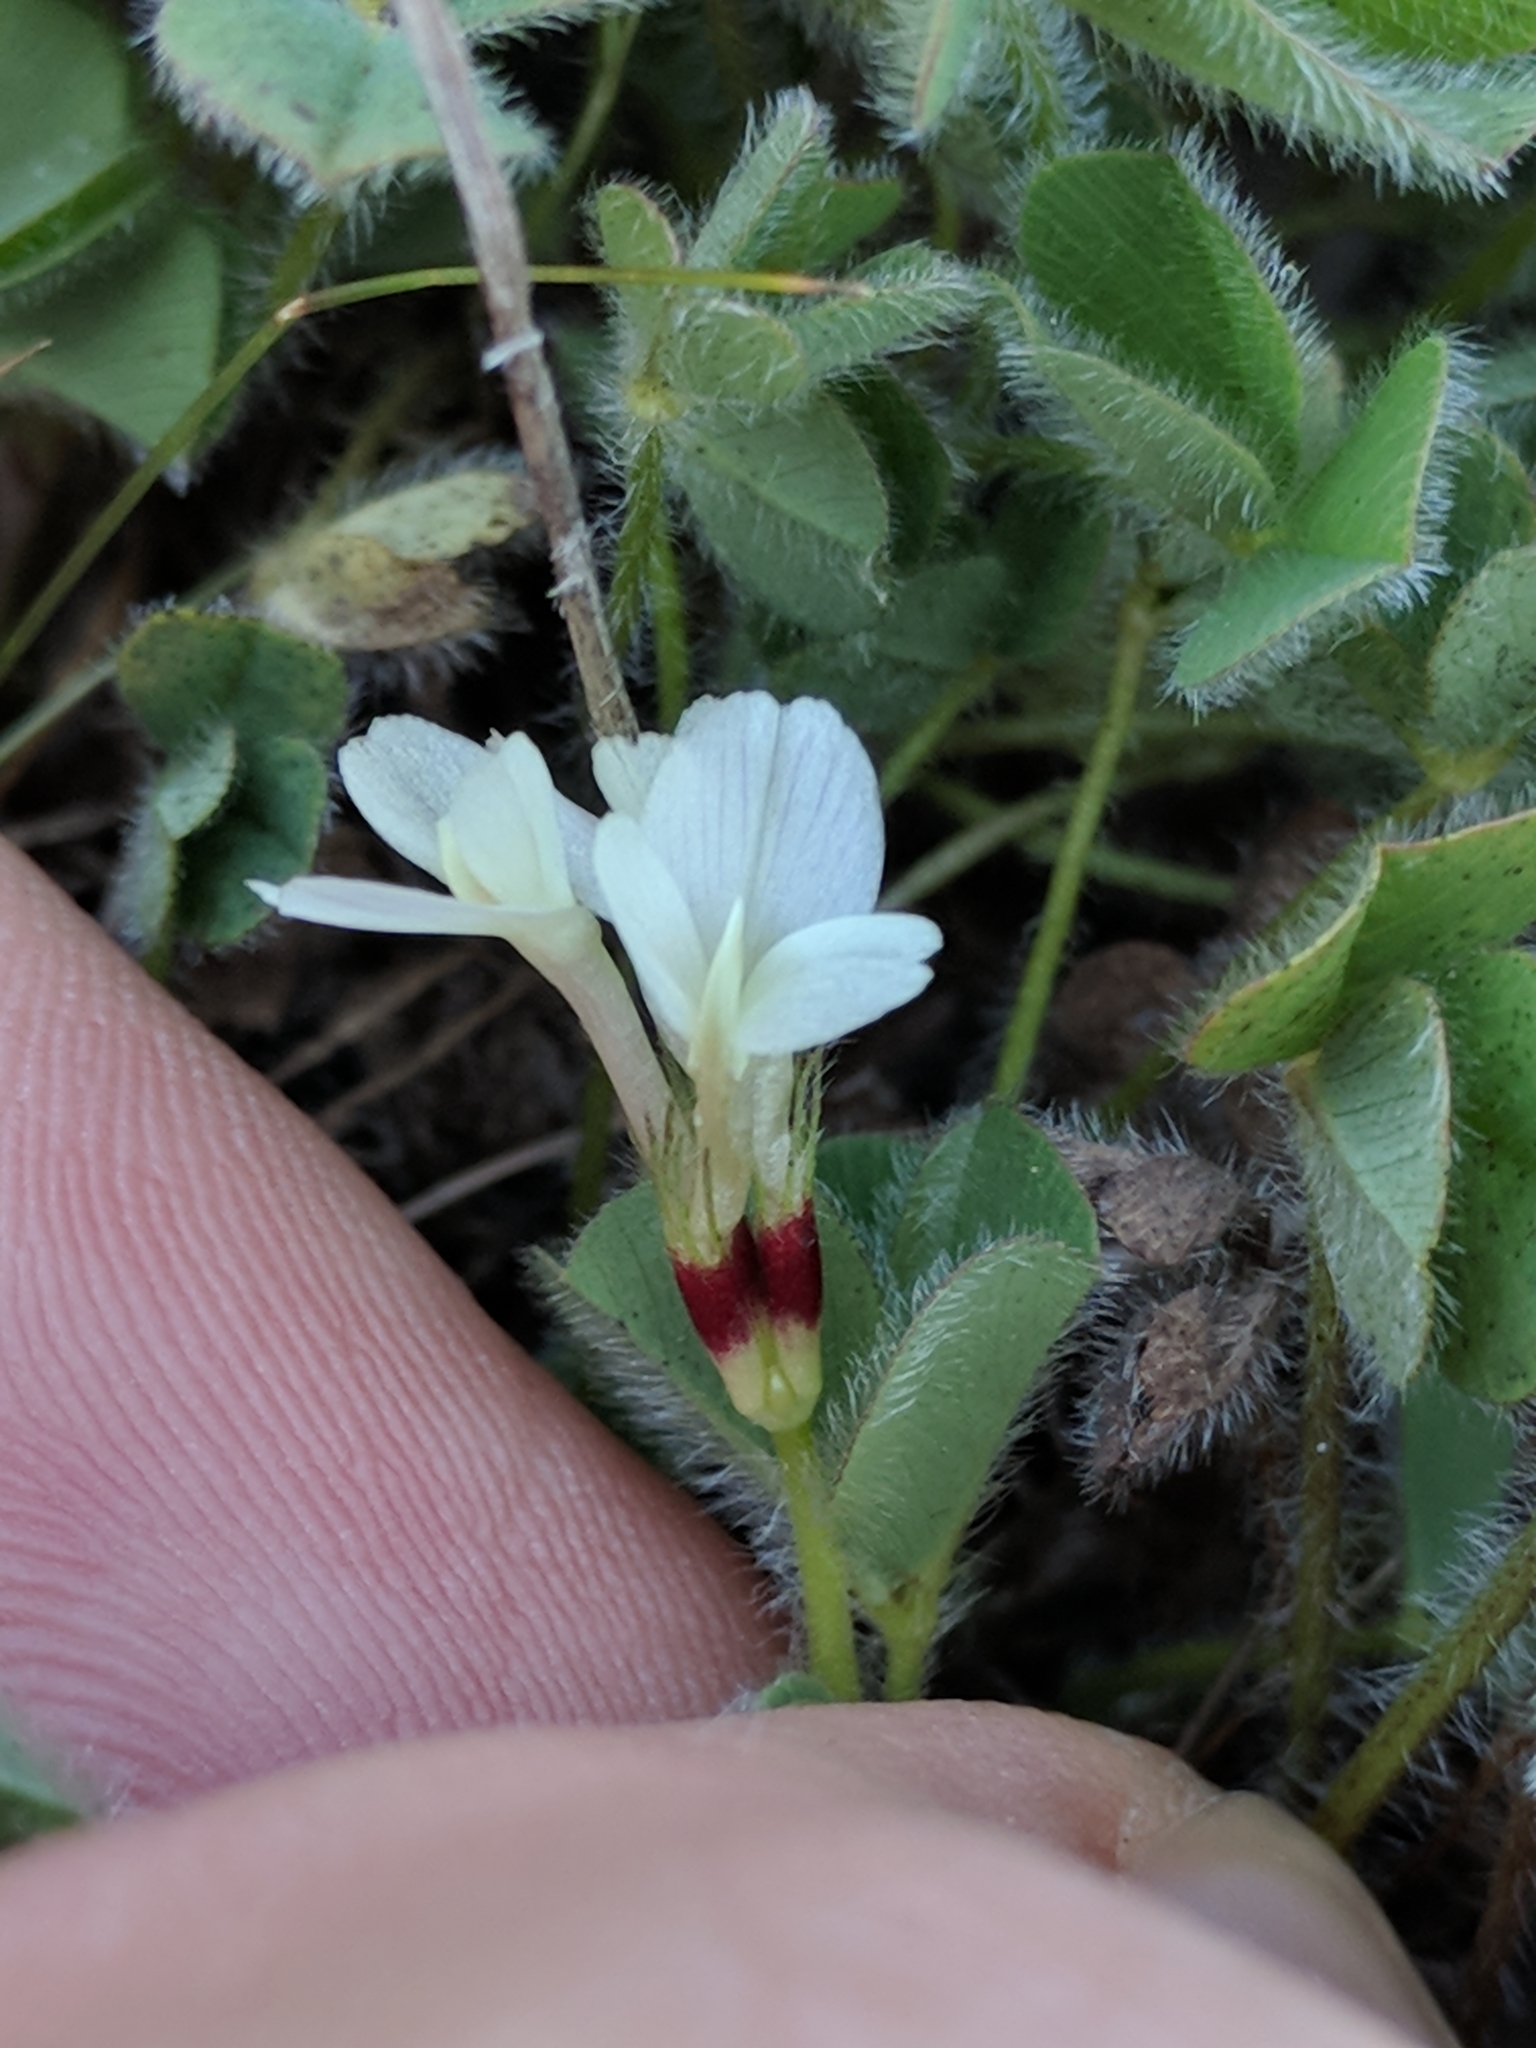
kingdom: Plantae
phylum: Tracheophyta
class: Magnoliopsida
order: Fabales
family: Fabaceae
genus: Trifolium
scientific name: Trifolium subterraneum
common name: Subterranean clover
